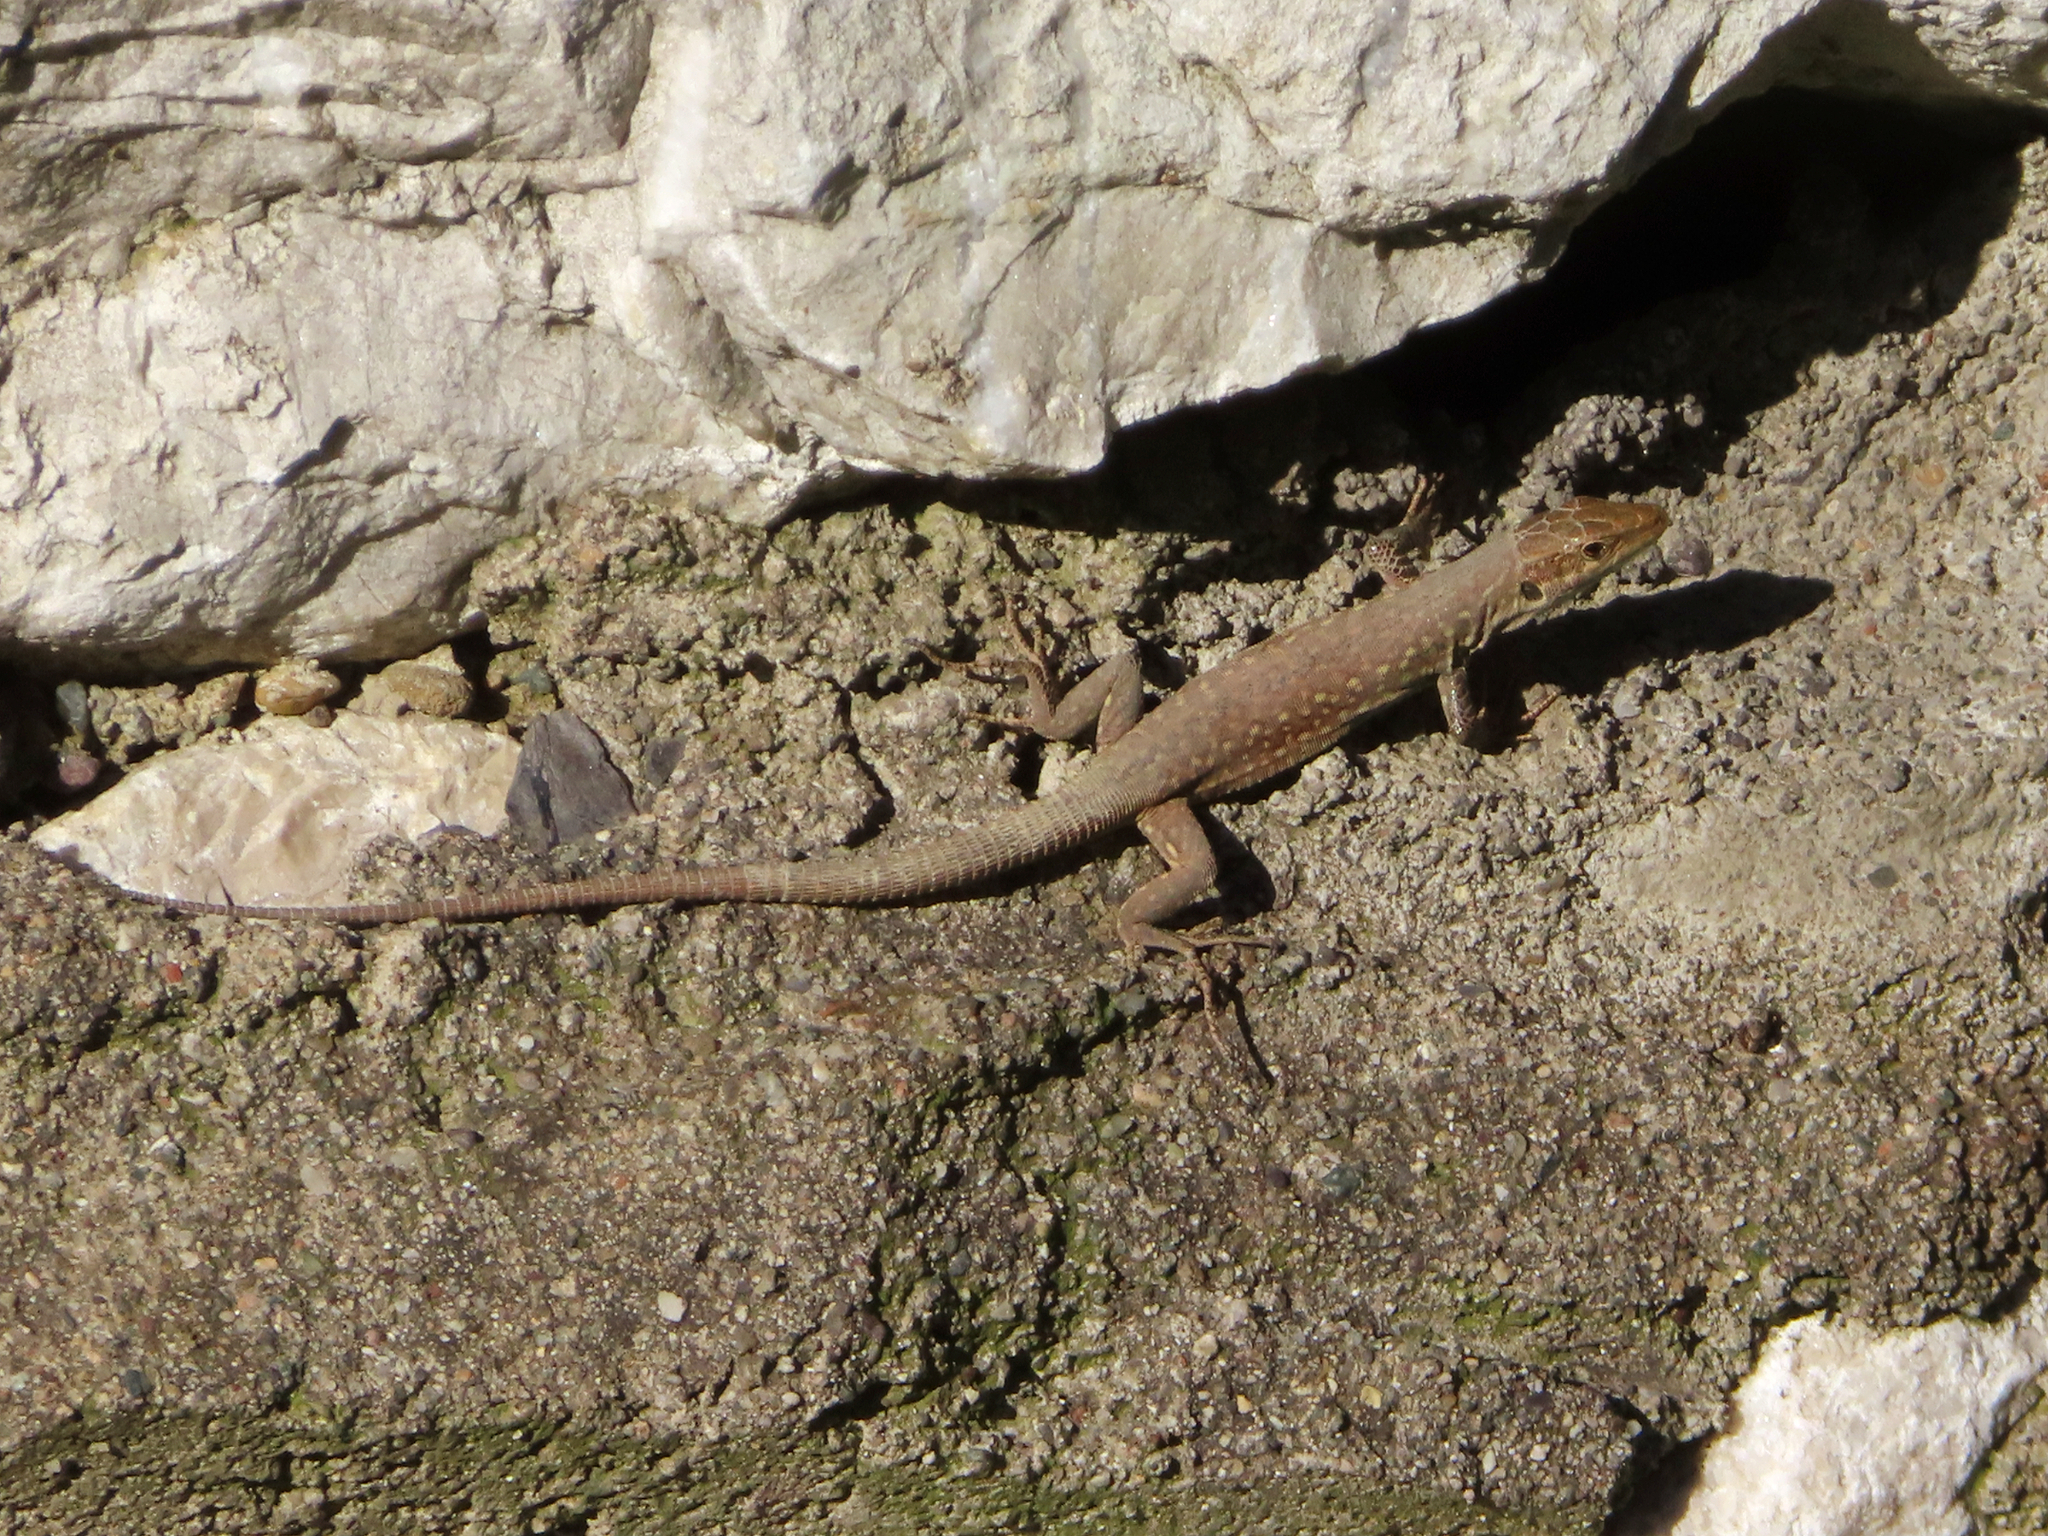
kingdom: Animalia
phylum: Chordata
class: Squamata
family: Lacertidae
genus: Podarcis
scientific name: Podarcis siculus
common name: Italian wall lizard
